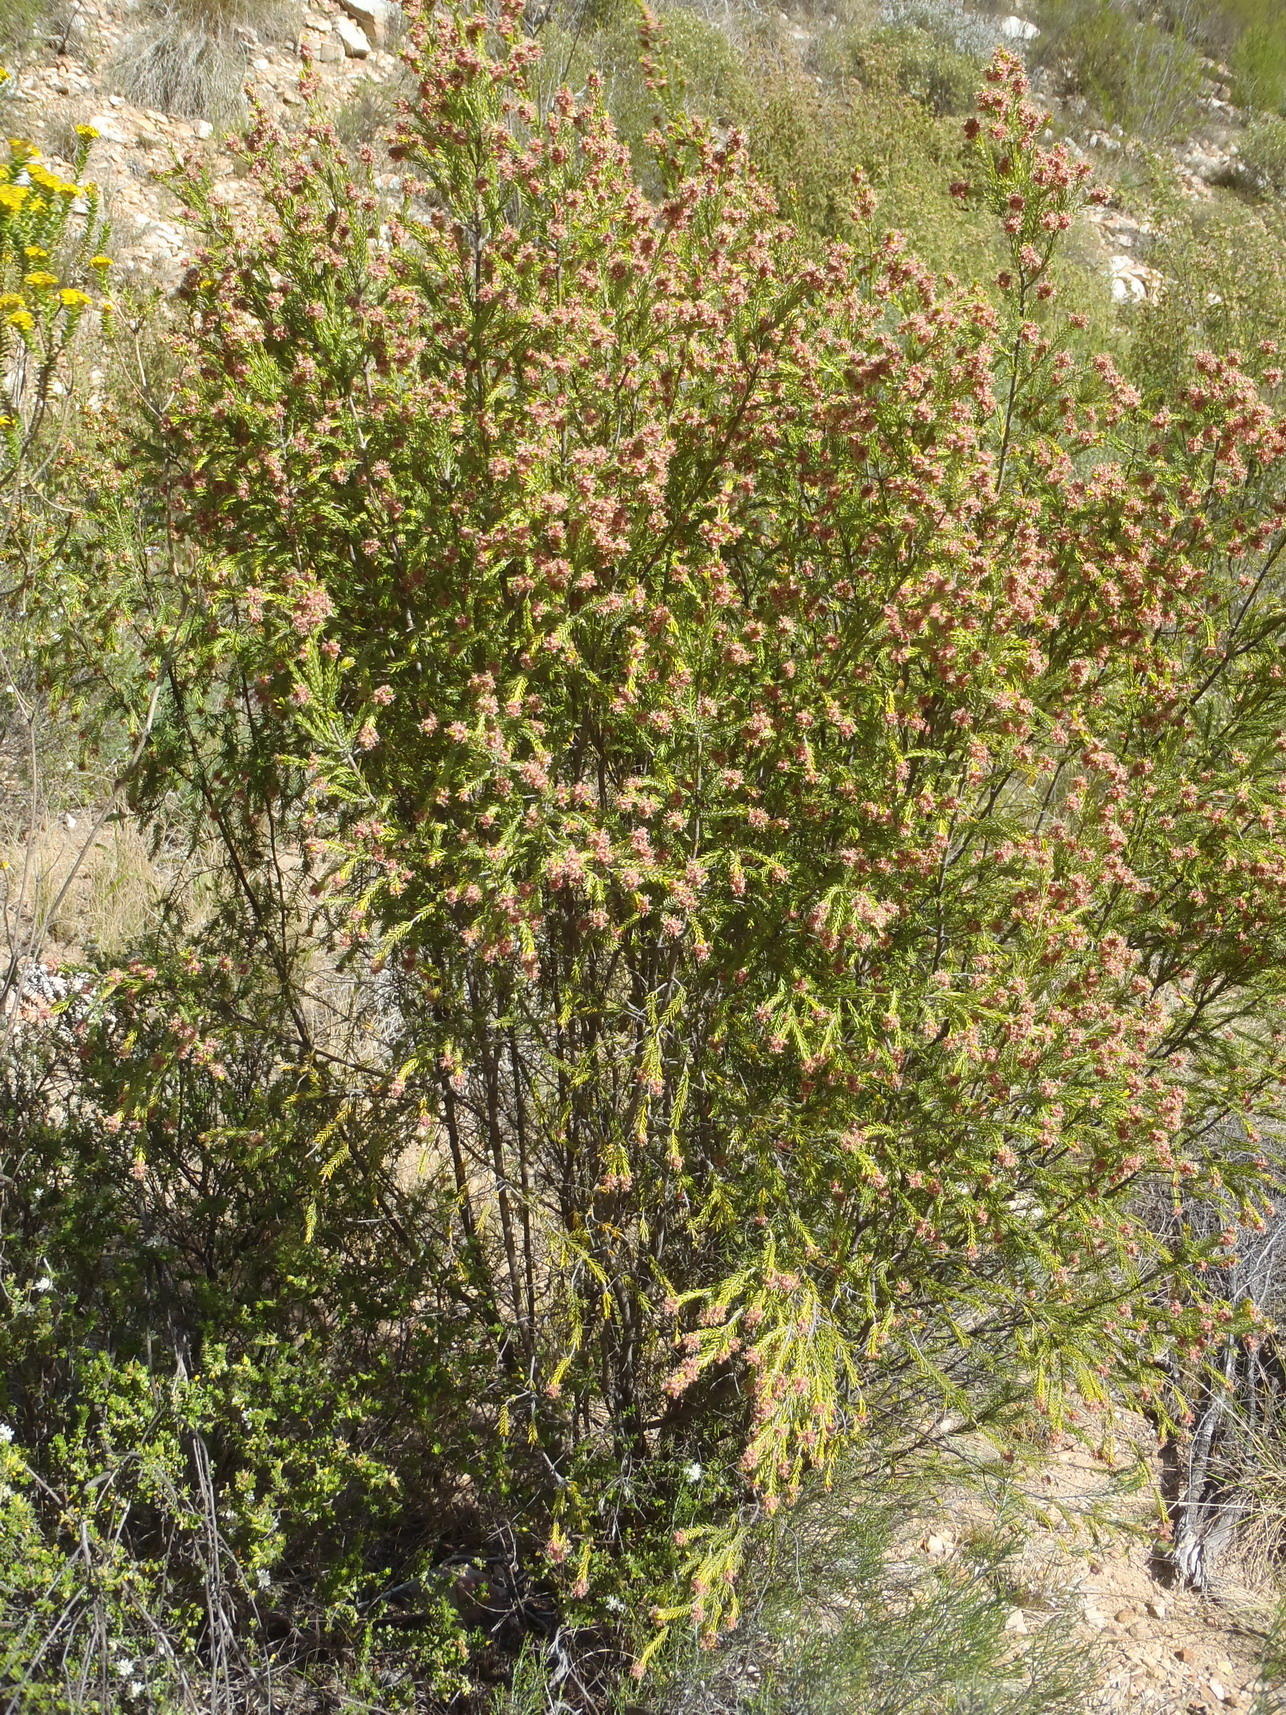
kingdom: Plantae
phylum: Tracheophyta
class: Magnoliopsida
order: Malvales
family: Thymelaeaceae
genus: Passerina
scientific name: Passerina obtusifolia
